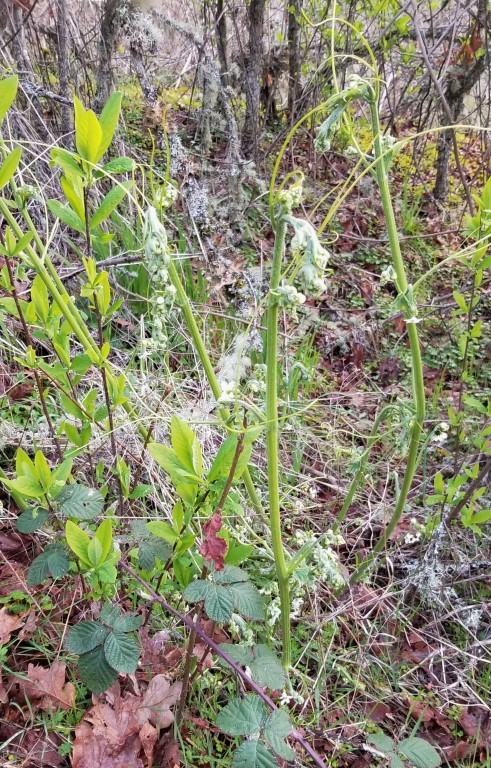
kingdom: Plantae
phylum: Tracheophyta
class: Magnoliopsida
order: Cucurbitales
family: Cucurbitaceae
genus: Marah
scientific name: Marah oregana
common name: Coastal manroot
